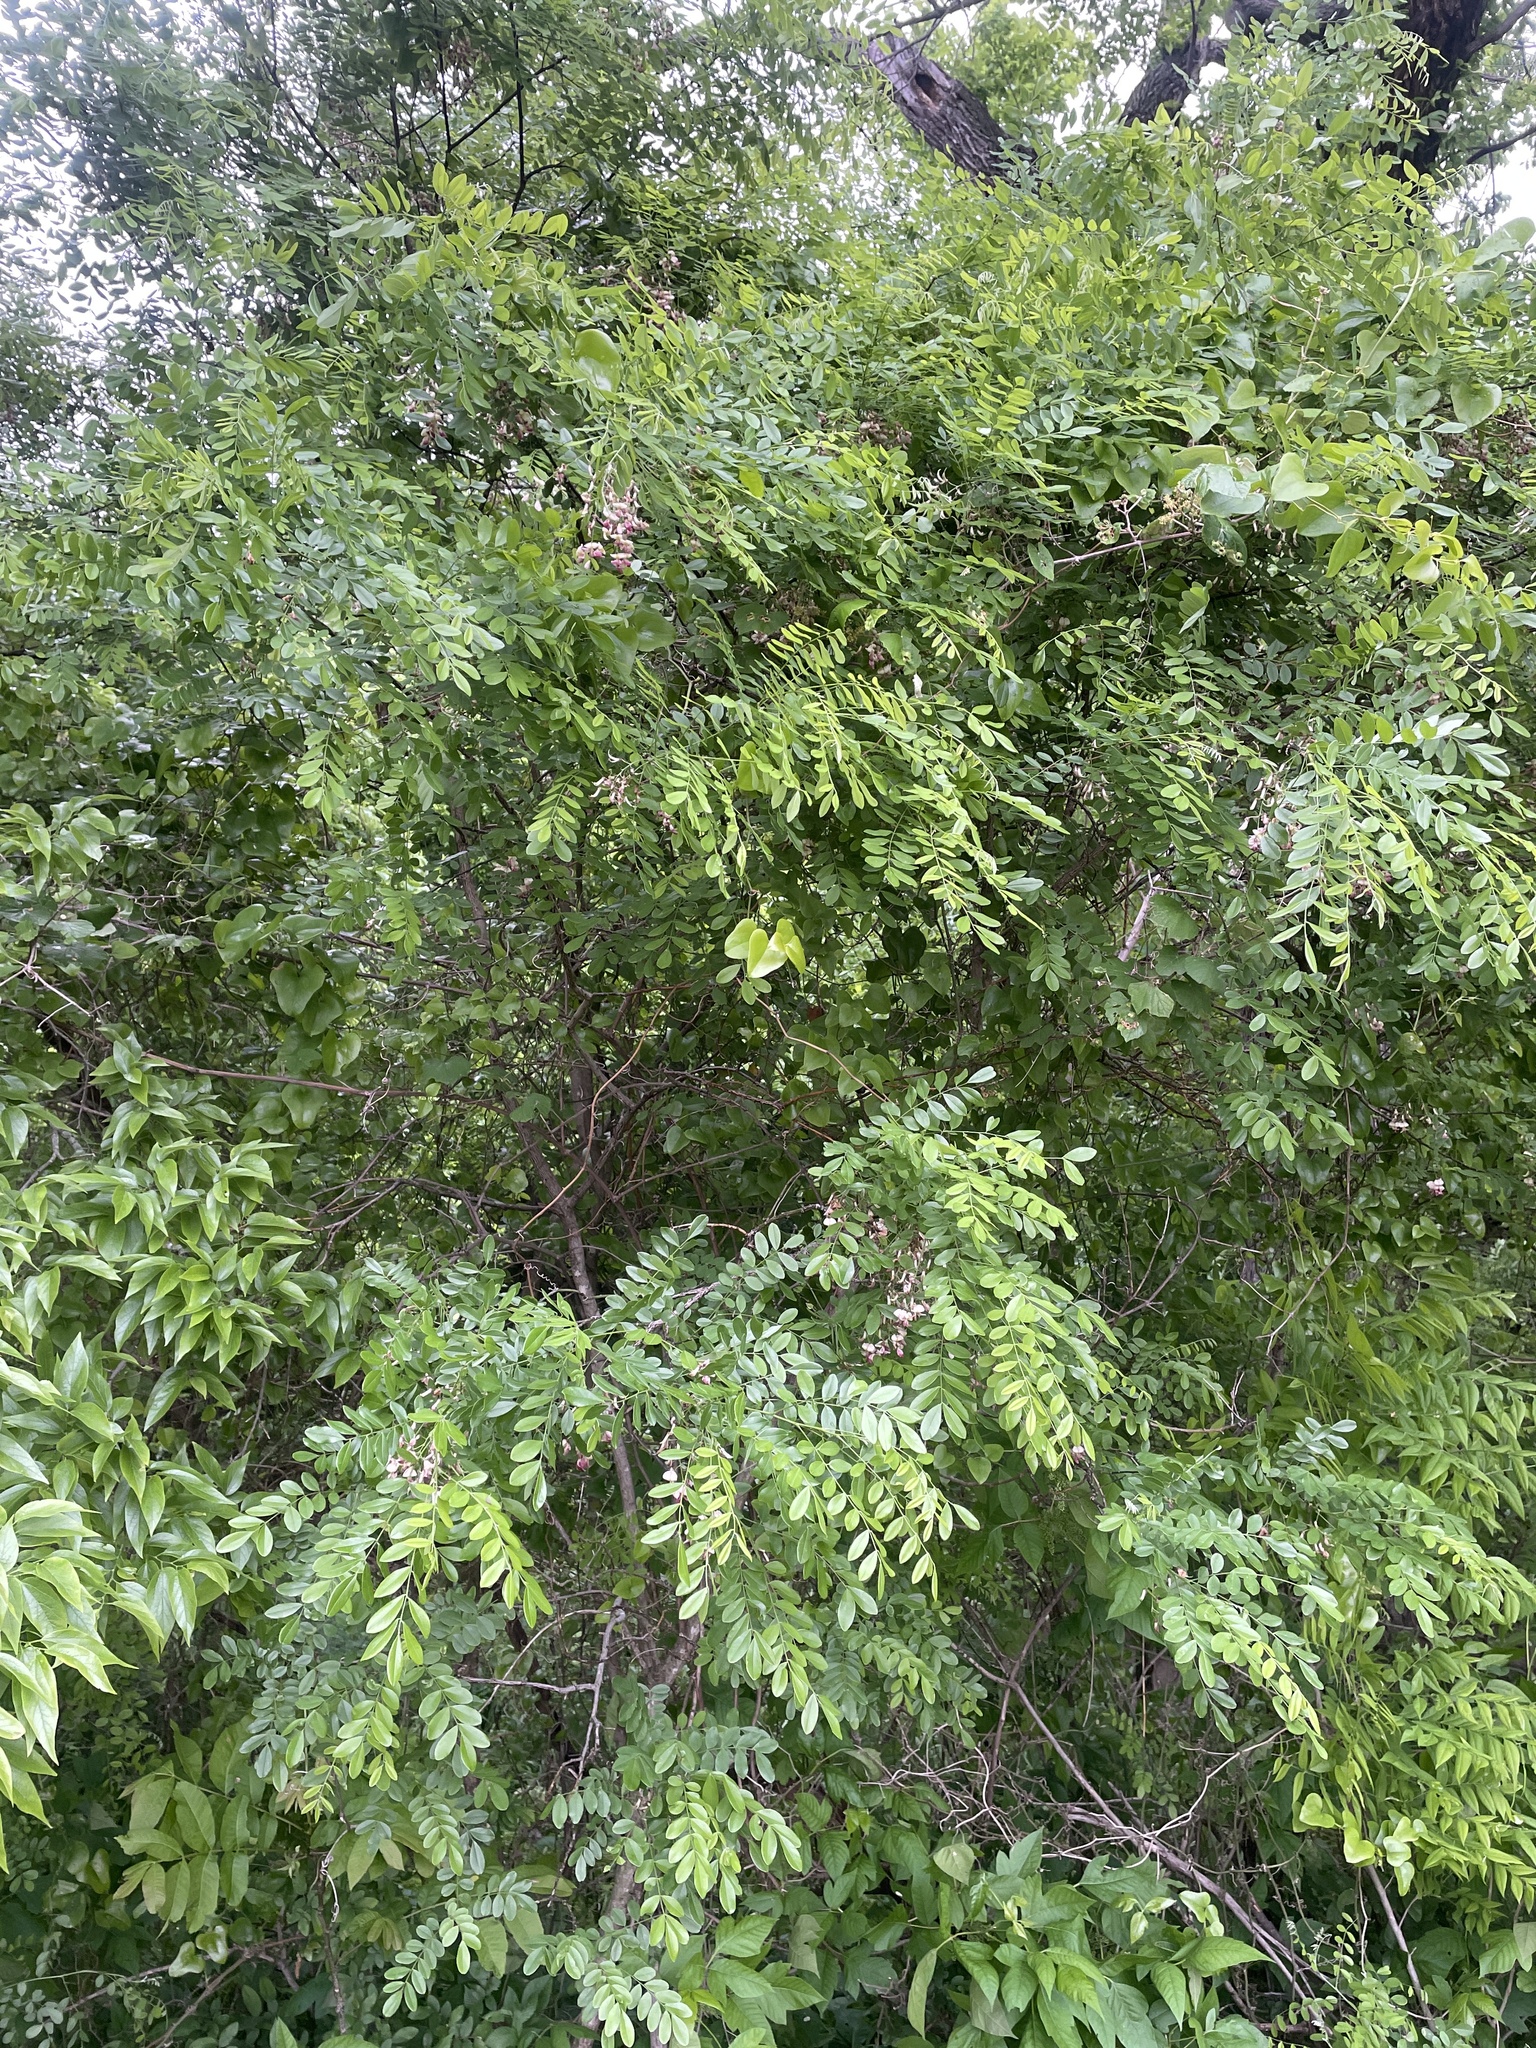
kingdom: Plantae
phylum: Tracheophyta
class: Magnoliopsida
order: Fabales
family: Fabaceae
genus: Styphnolobium
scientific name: Styphnolobium affine
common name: Texas sophora
